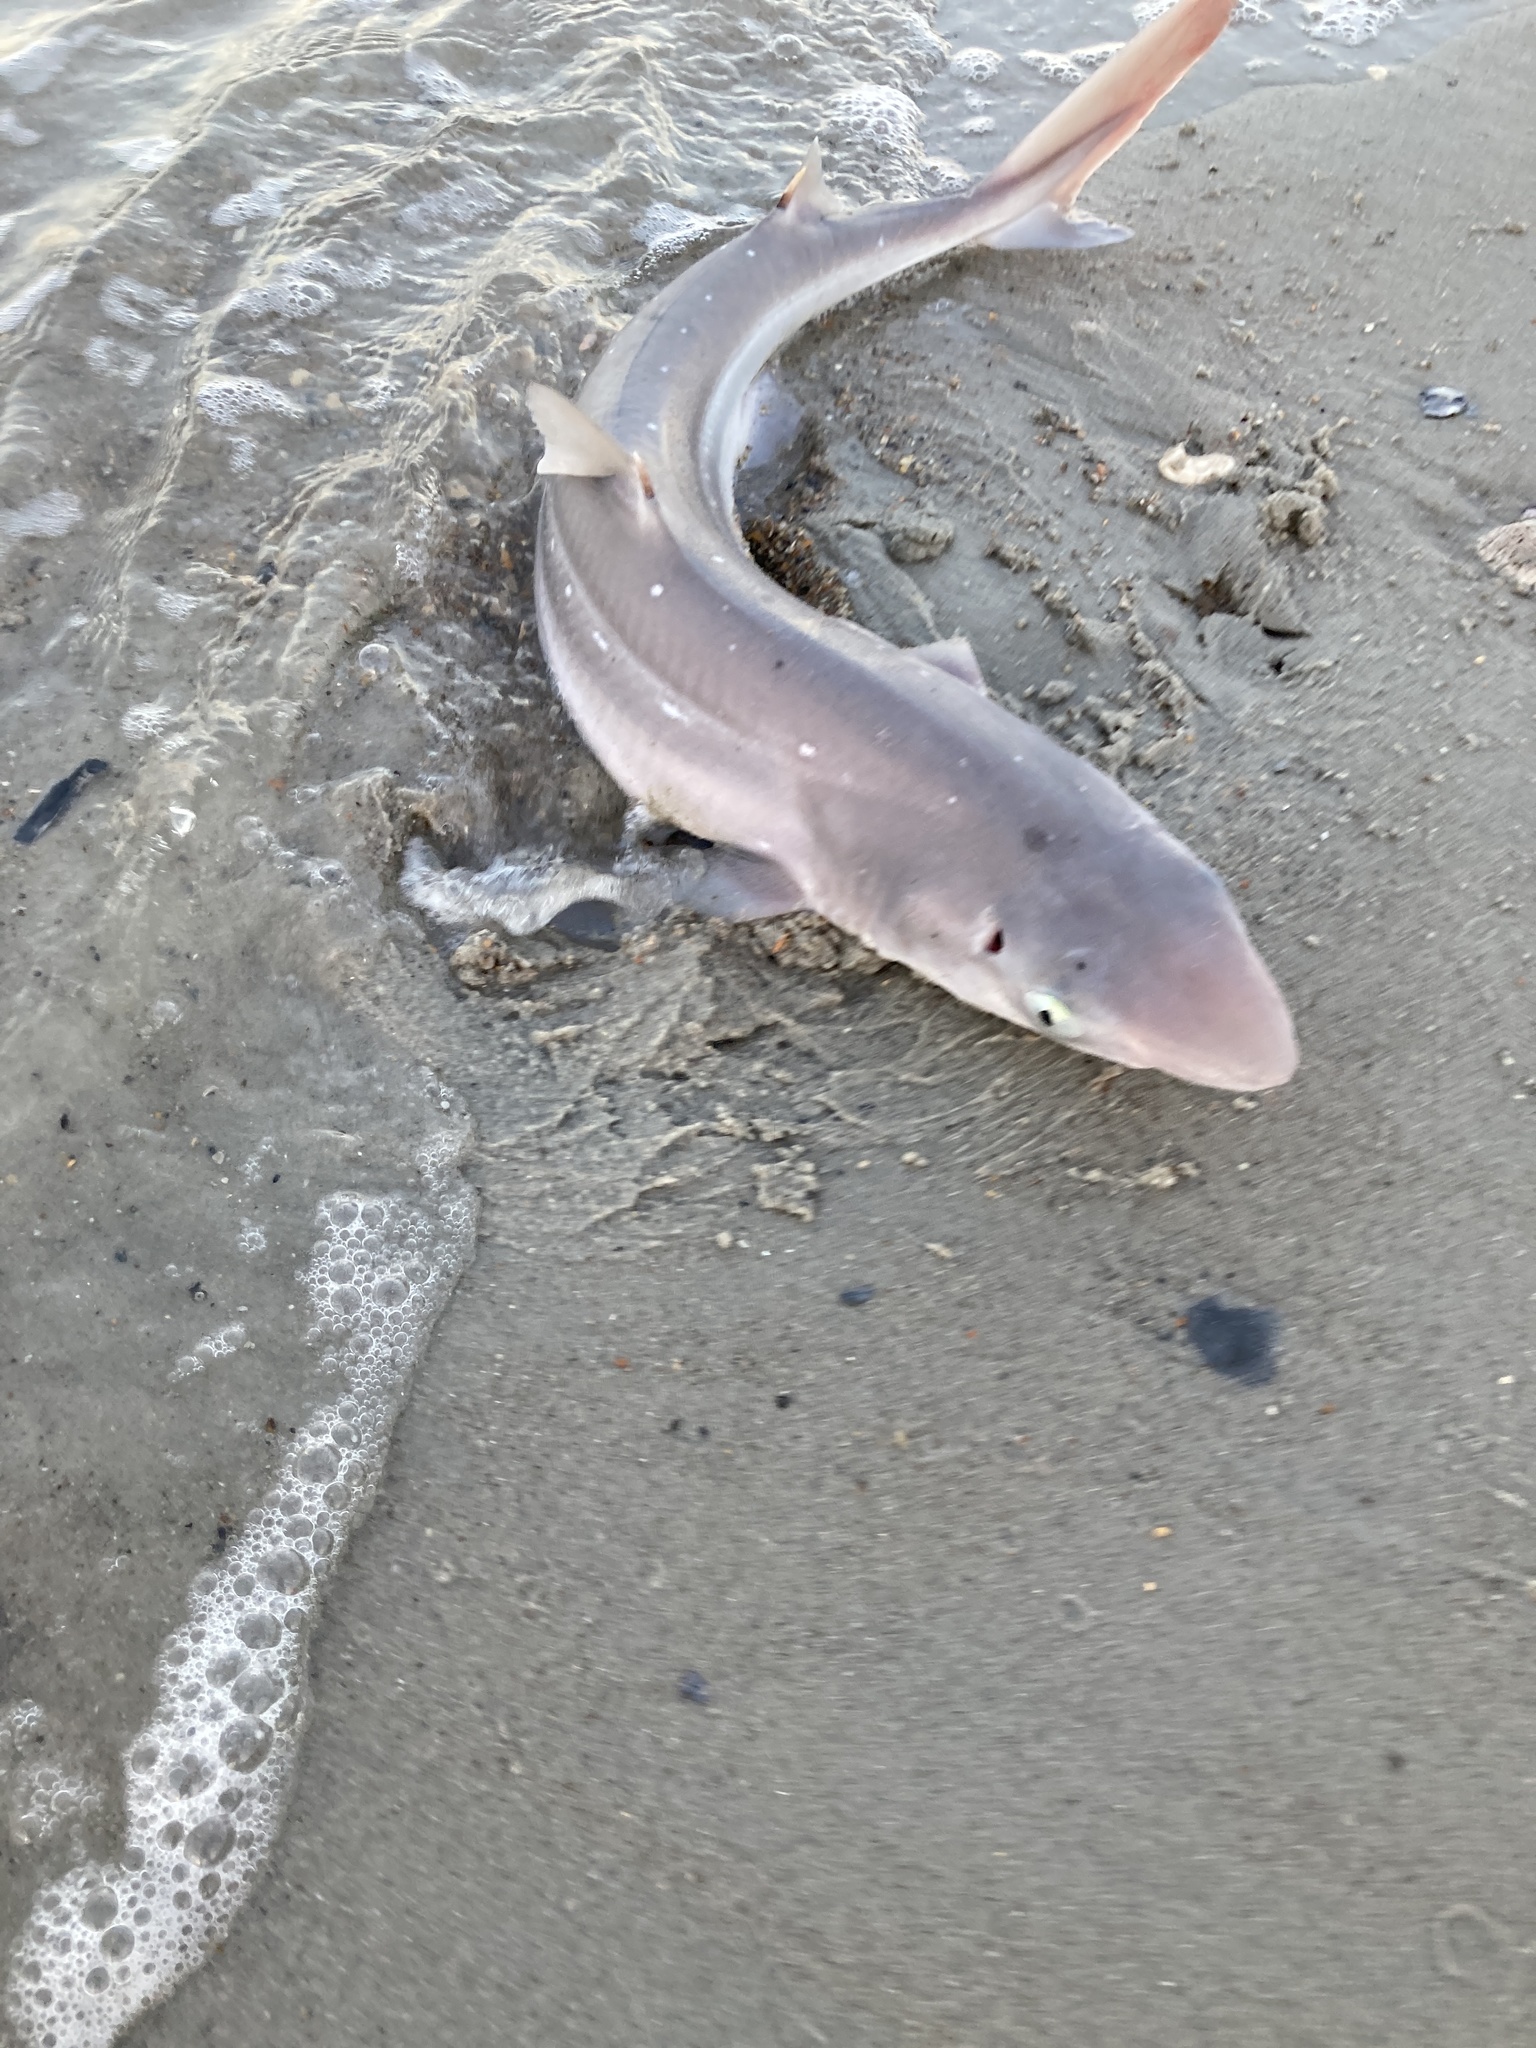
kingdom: Animalia
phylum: Chordata
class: Elasmobranchii
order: Squaliformes
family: Squalidae
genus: Squalus
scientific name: Squalus acanthias
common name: Spurdog
